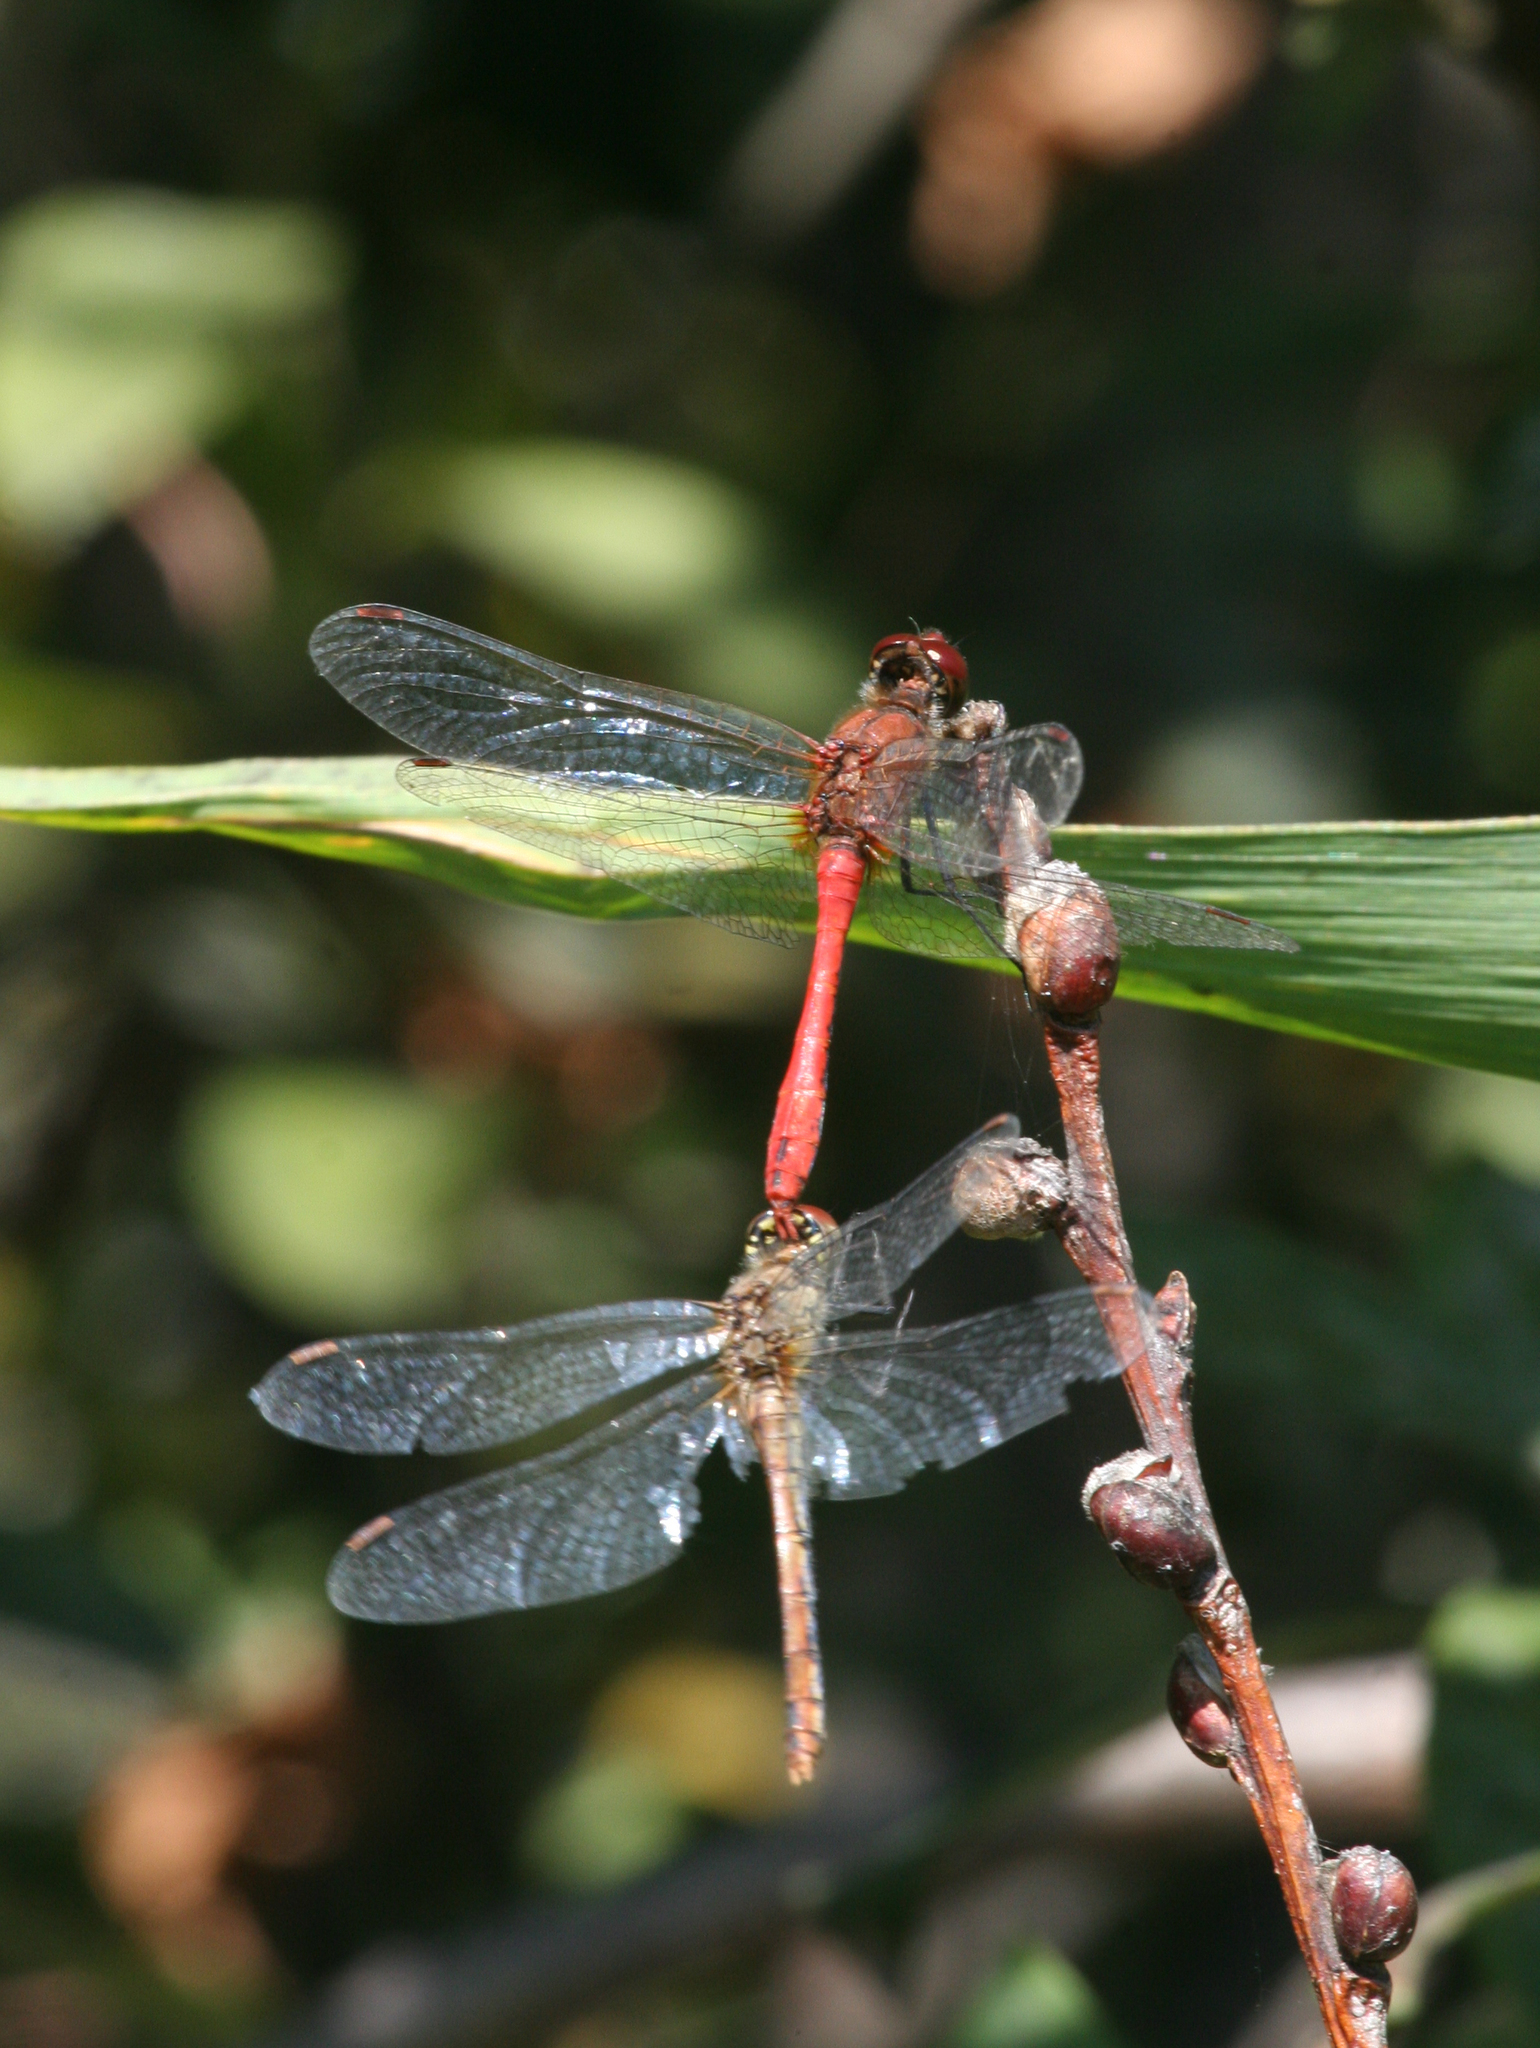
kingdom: Animalia
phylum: Arthropoda
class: Insecta
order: Odonata
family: Libellulidae
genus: Sympetrum
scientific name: Sympetrum sanguineum
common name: Ruddy darter
